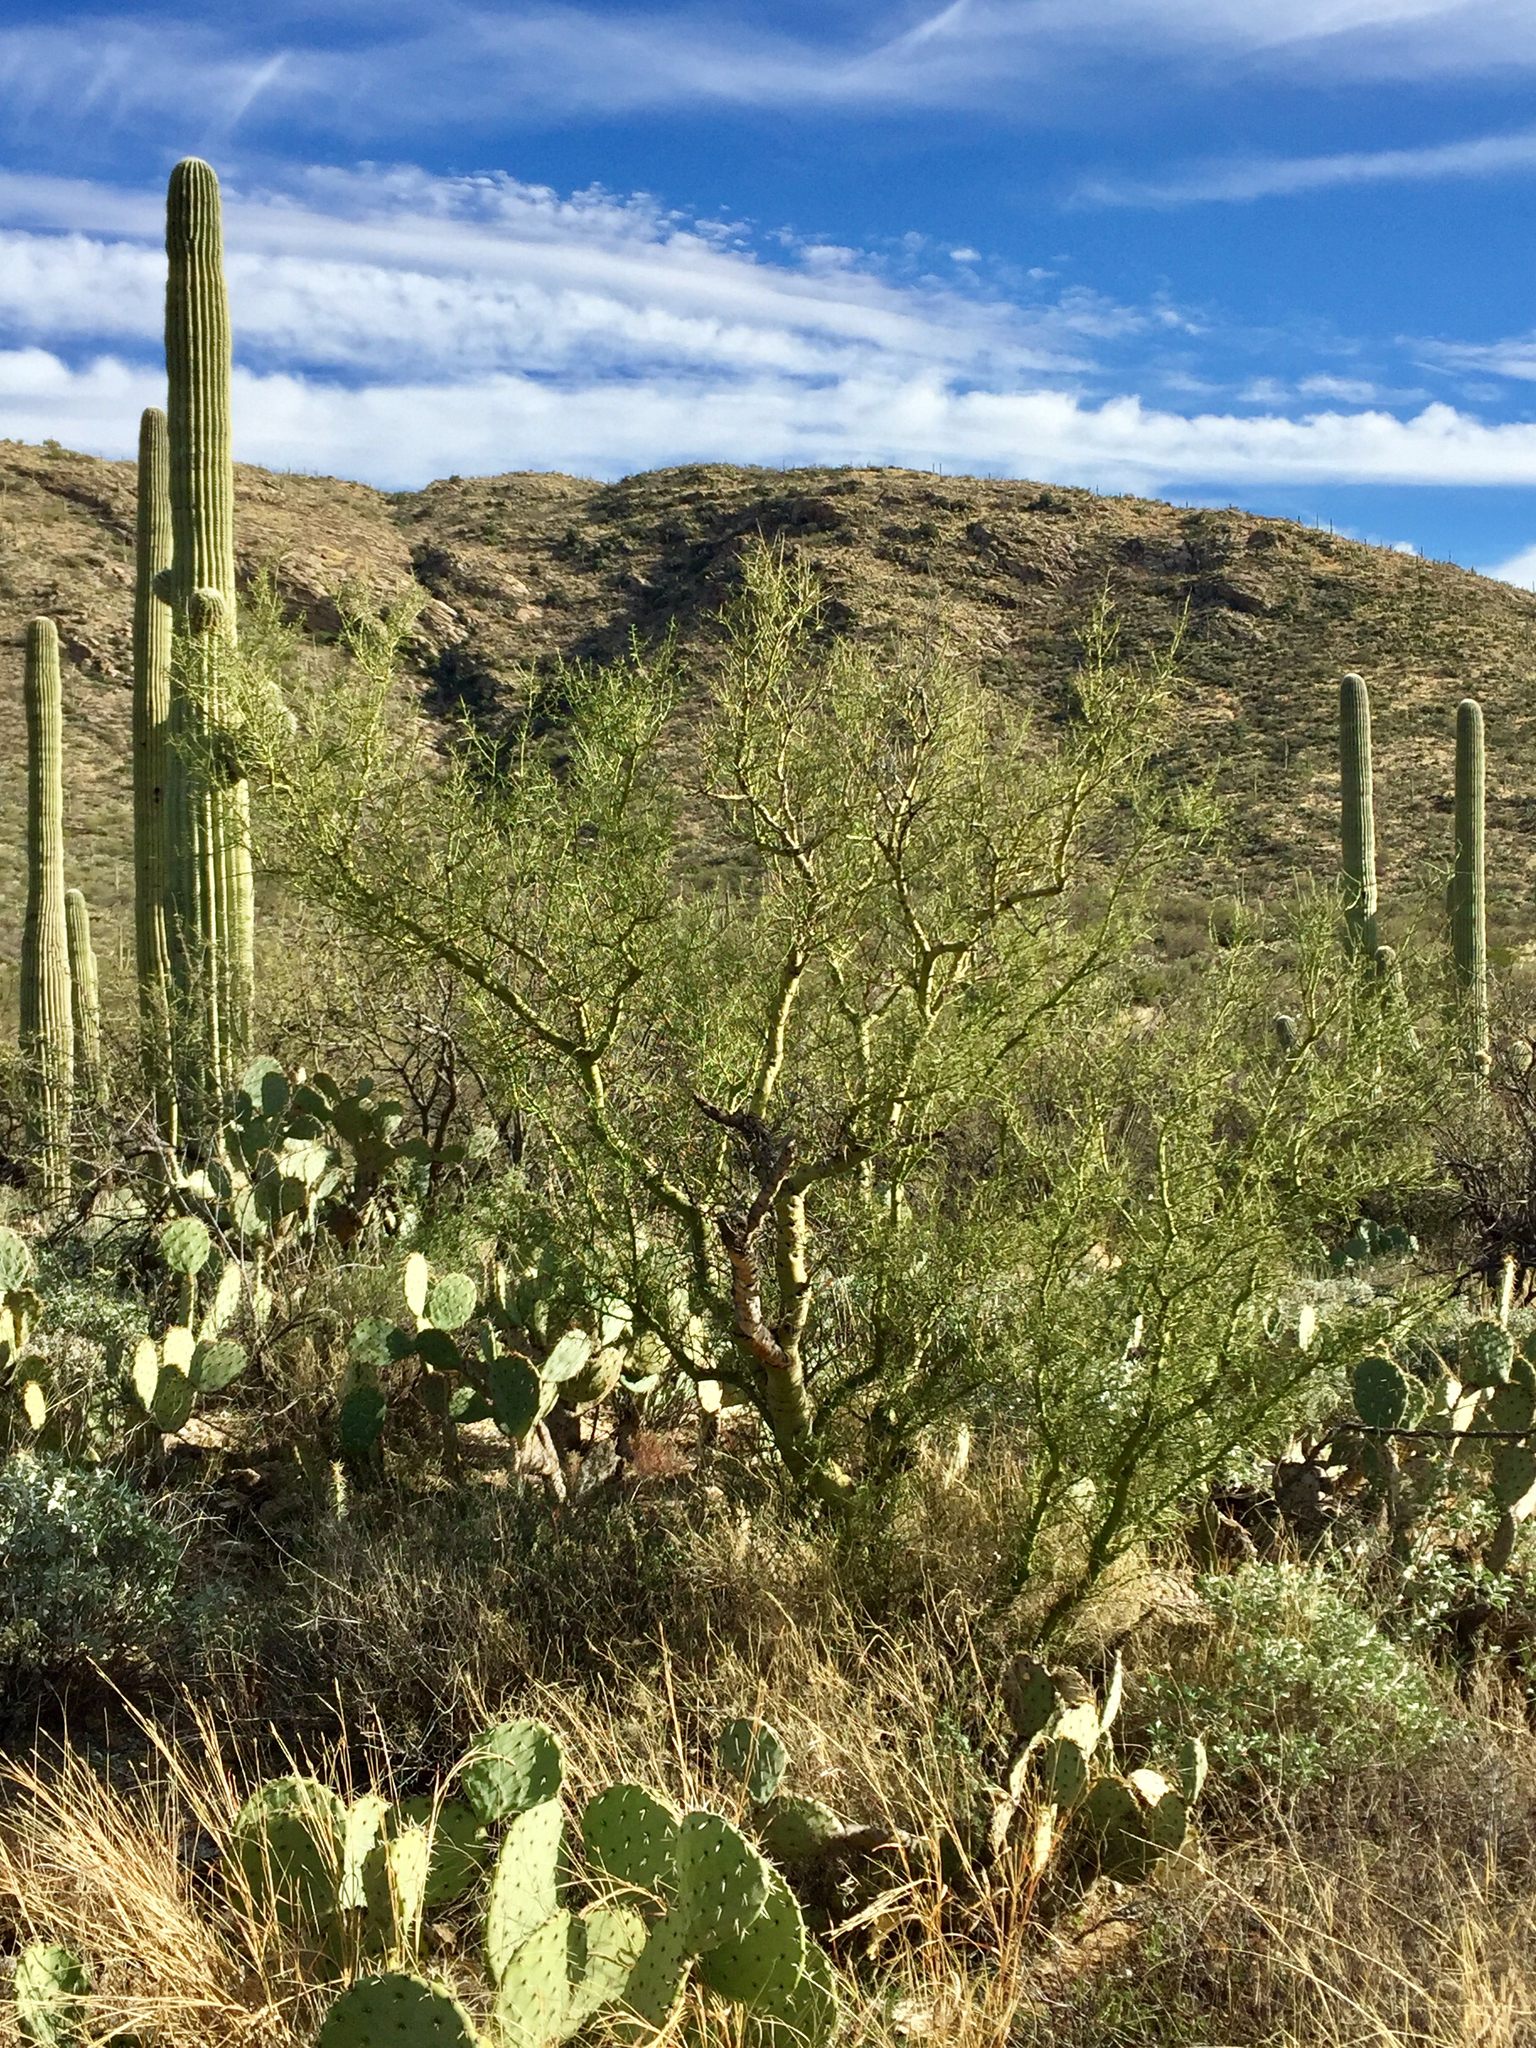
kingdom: Plantae
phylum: Tracheophyta
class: Magnoliopsida
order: Fabales
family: Fabaceae
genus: Parkinsonia
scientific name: Parkinsonia microphylla
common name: Yellow paloverde
